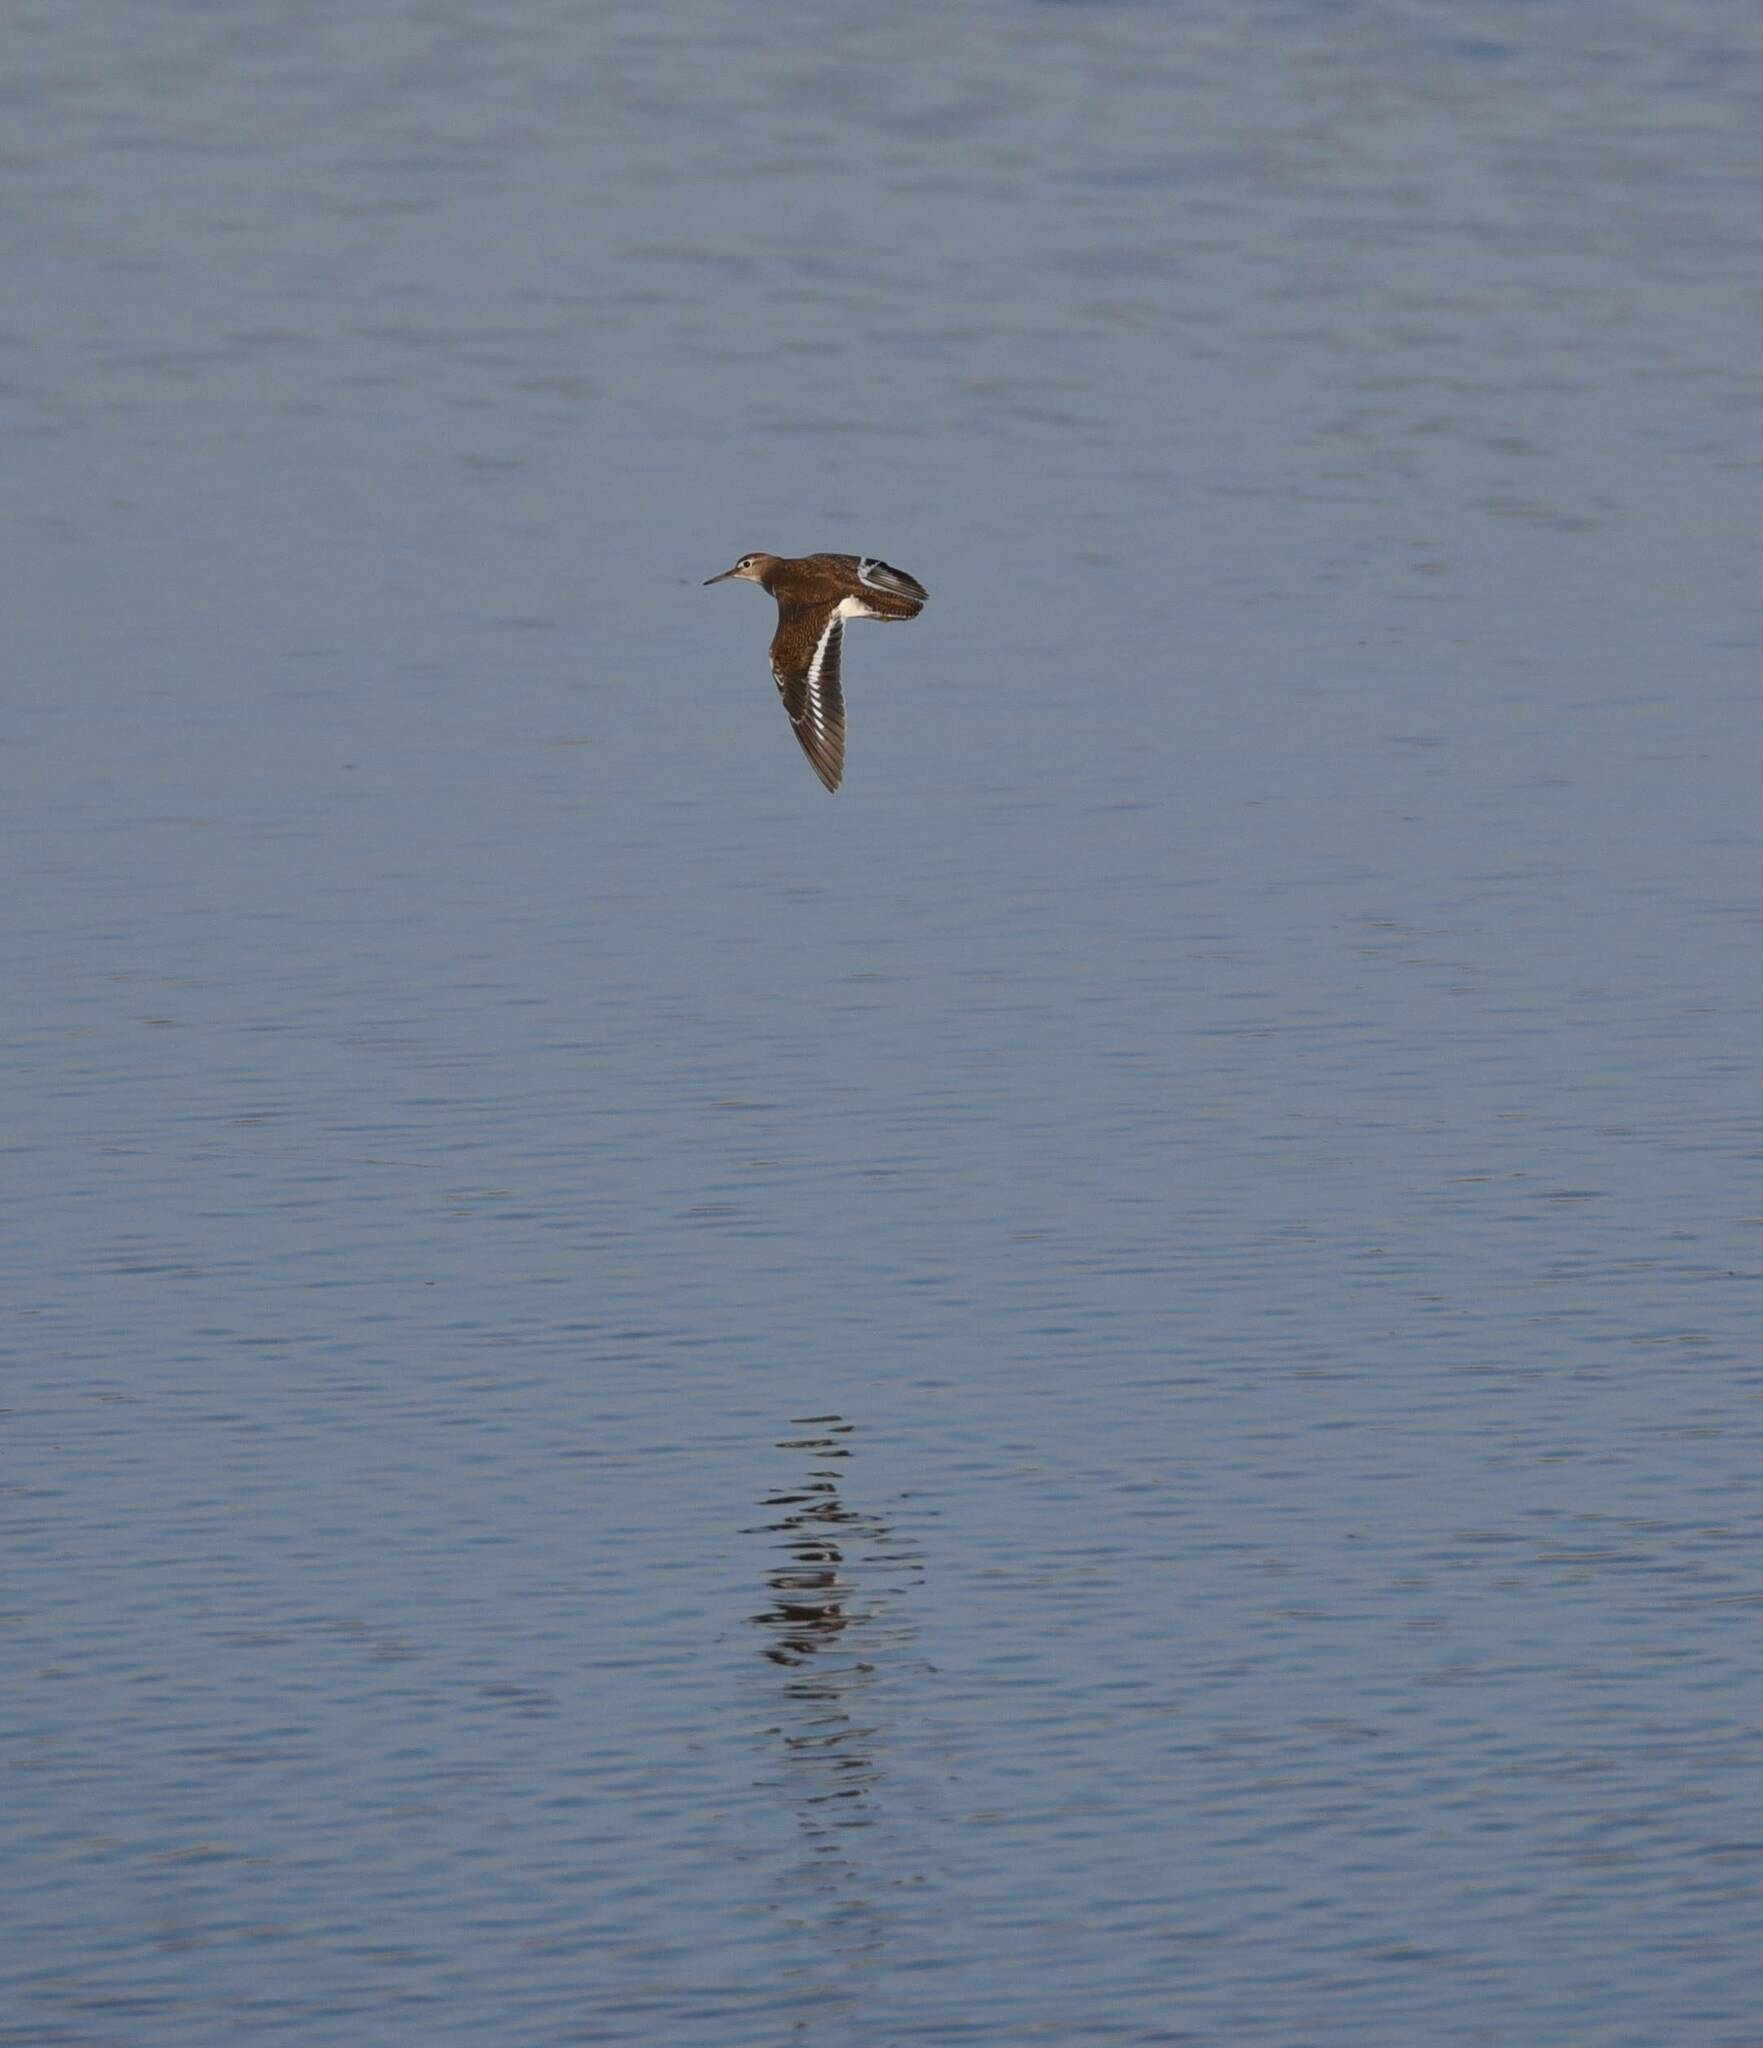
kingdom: Animalia
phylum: Chordata
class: Aves
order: Charadriiformes
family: Scolopacidae
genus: Actitis
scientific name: Actitis hypoleucos
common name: Common sandpiper
